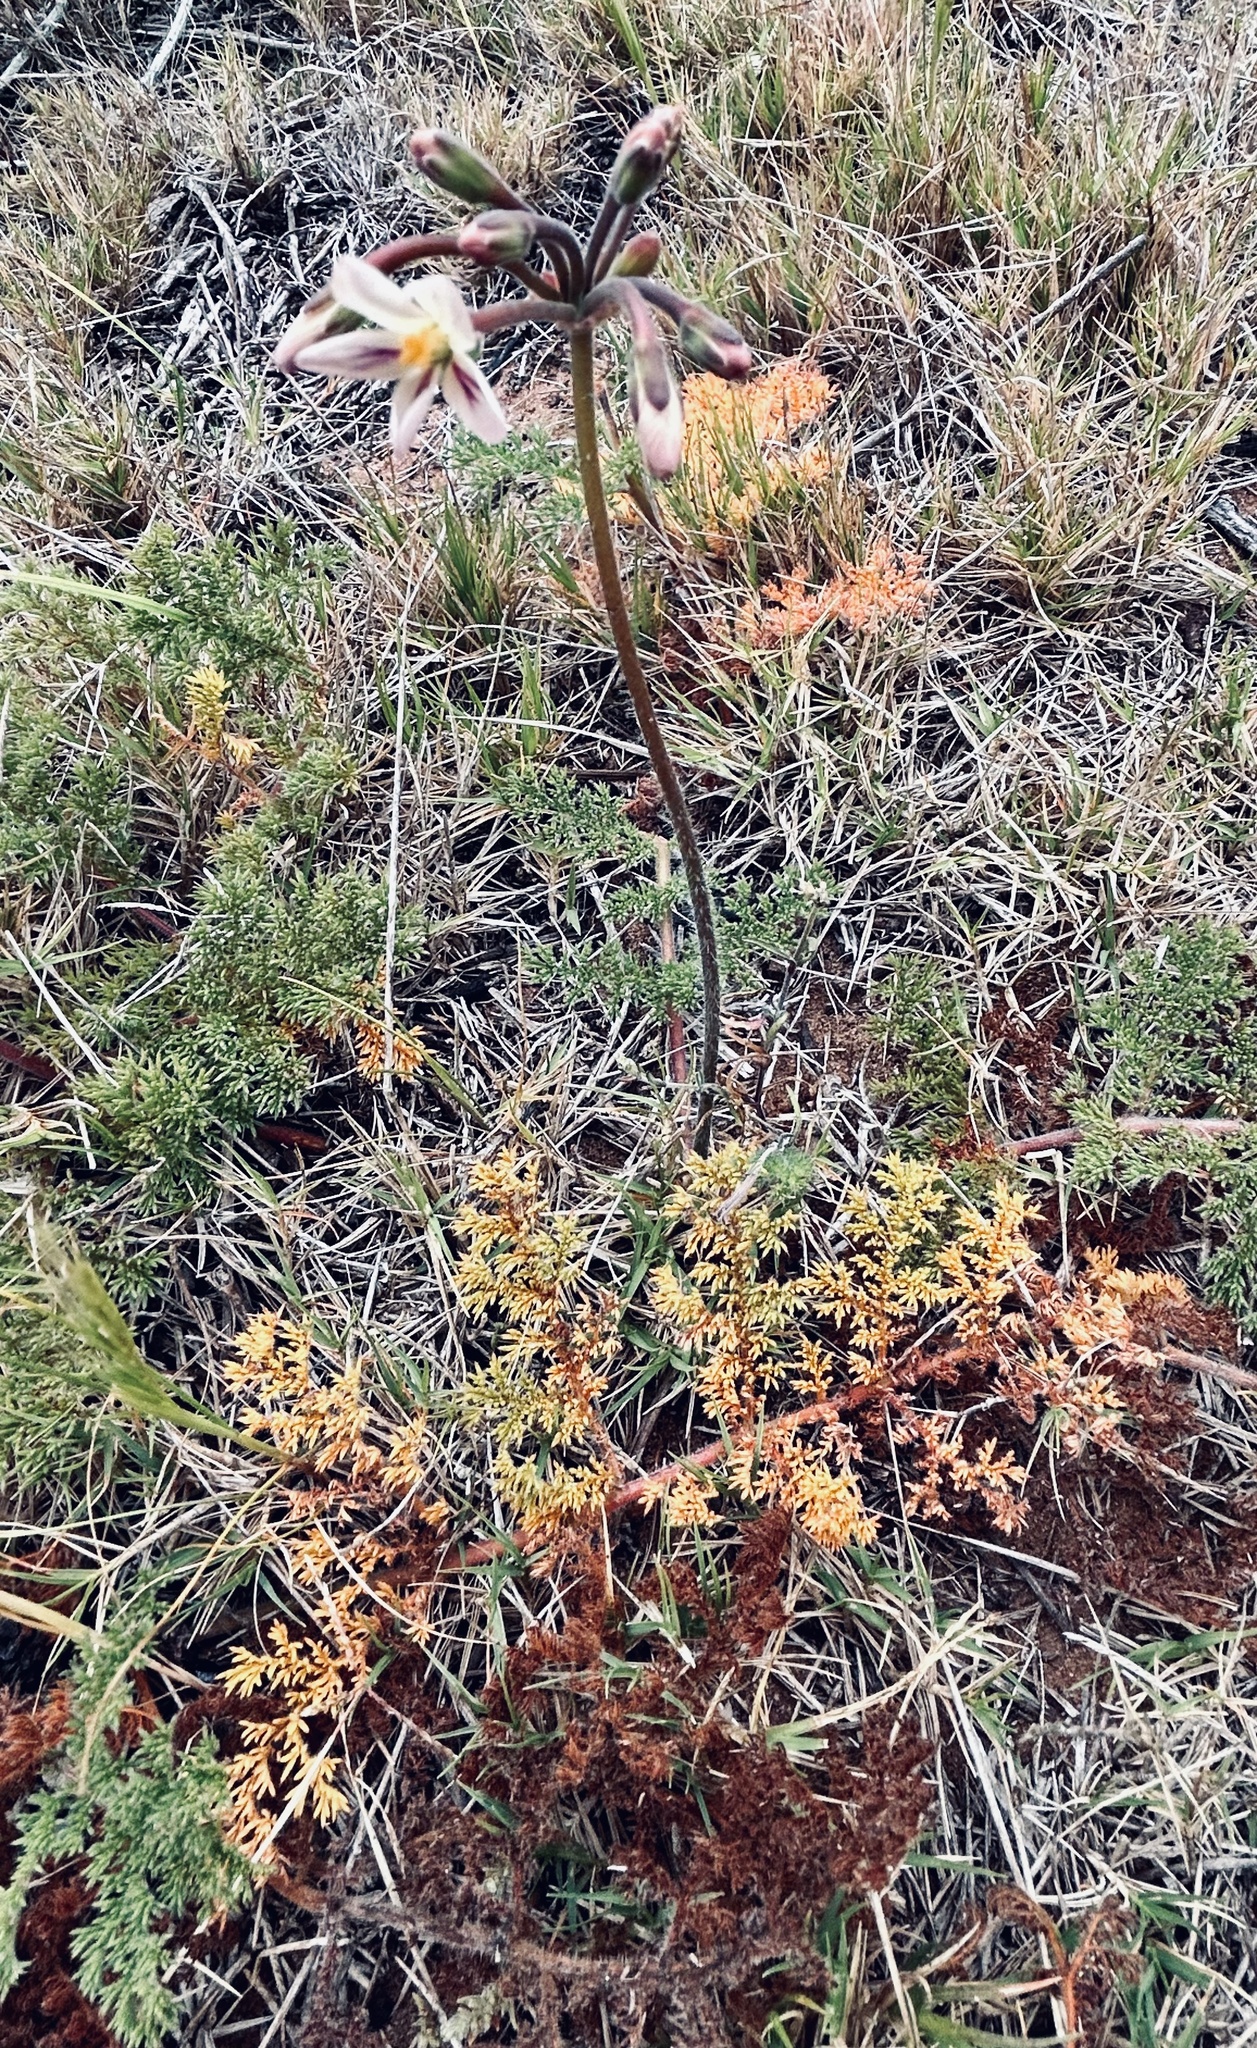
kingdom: Plantae
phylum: Tracheophyta
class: Magnoliopsida
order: Geraniales
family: Geraniaceae
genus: Pelargonium
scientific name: Pelargonium triste
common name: Night-scent pelargonium
